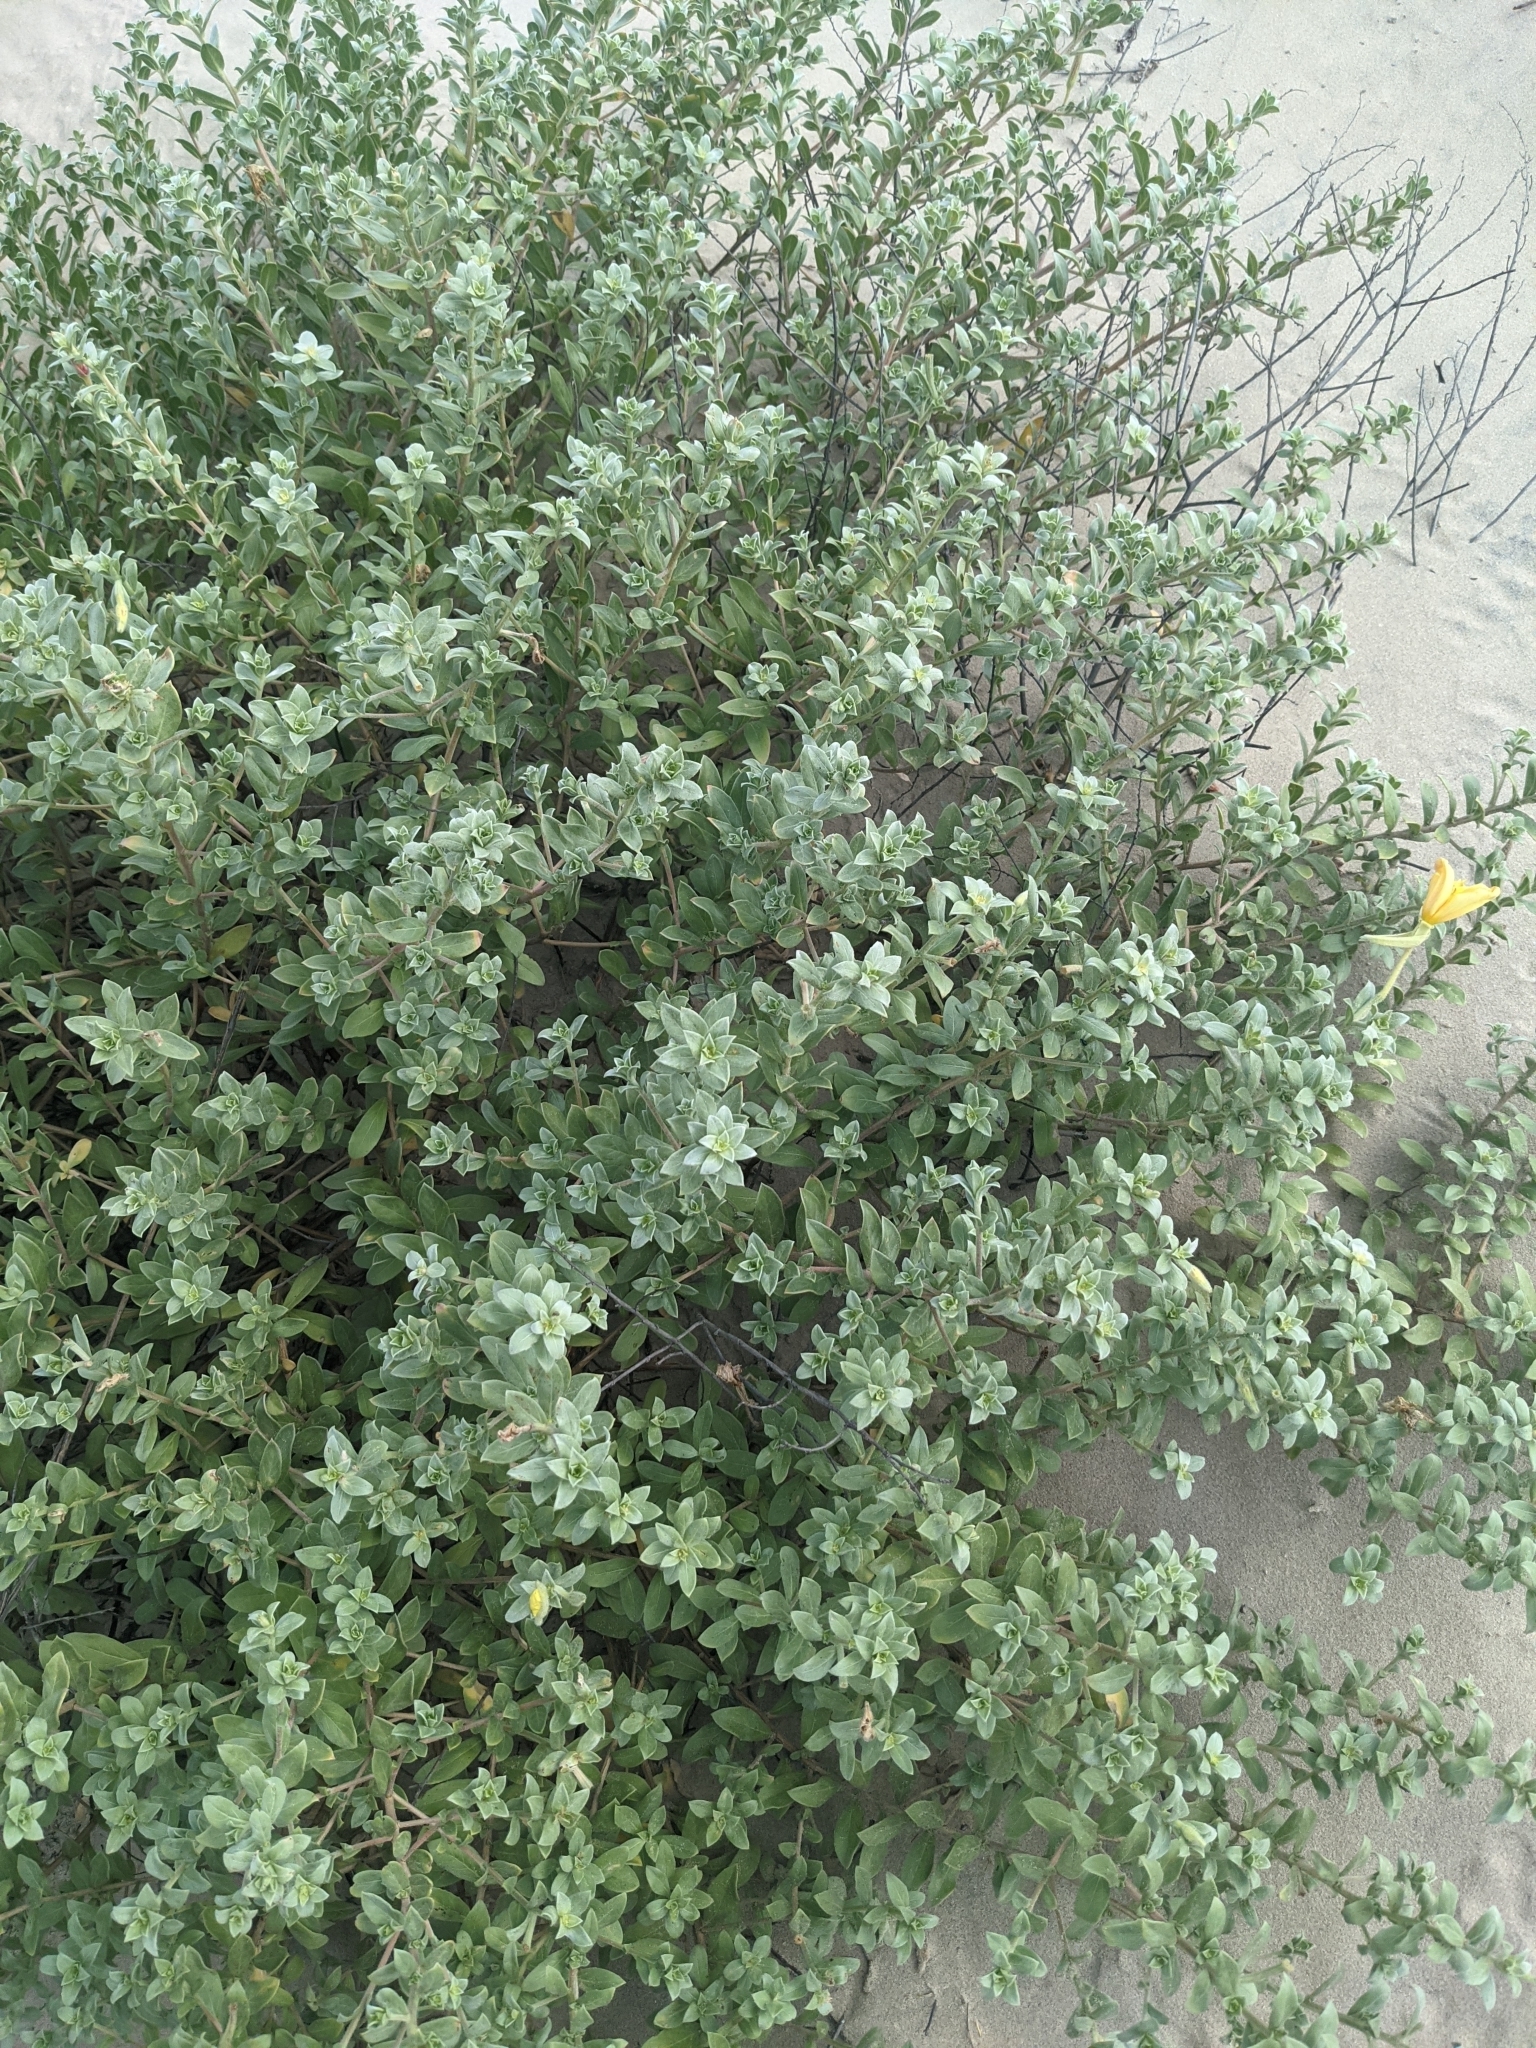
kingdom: Plantae
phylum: Tracheophyta
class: Magnoliopsida
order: Myrtales
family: Onagraceae
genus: Oenothera
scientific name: Oenothera drummondii
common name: Beach evening-primrose
